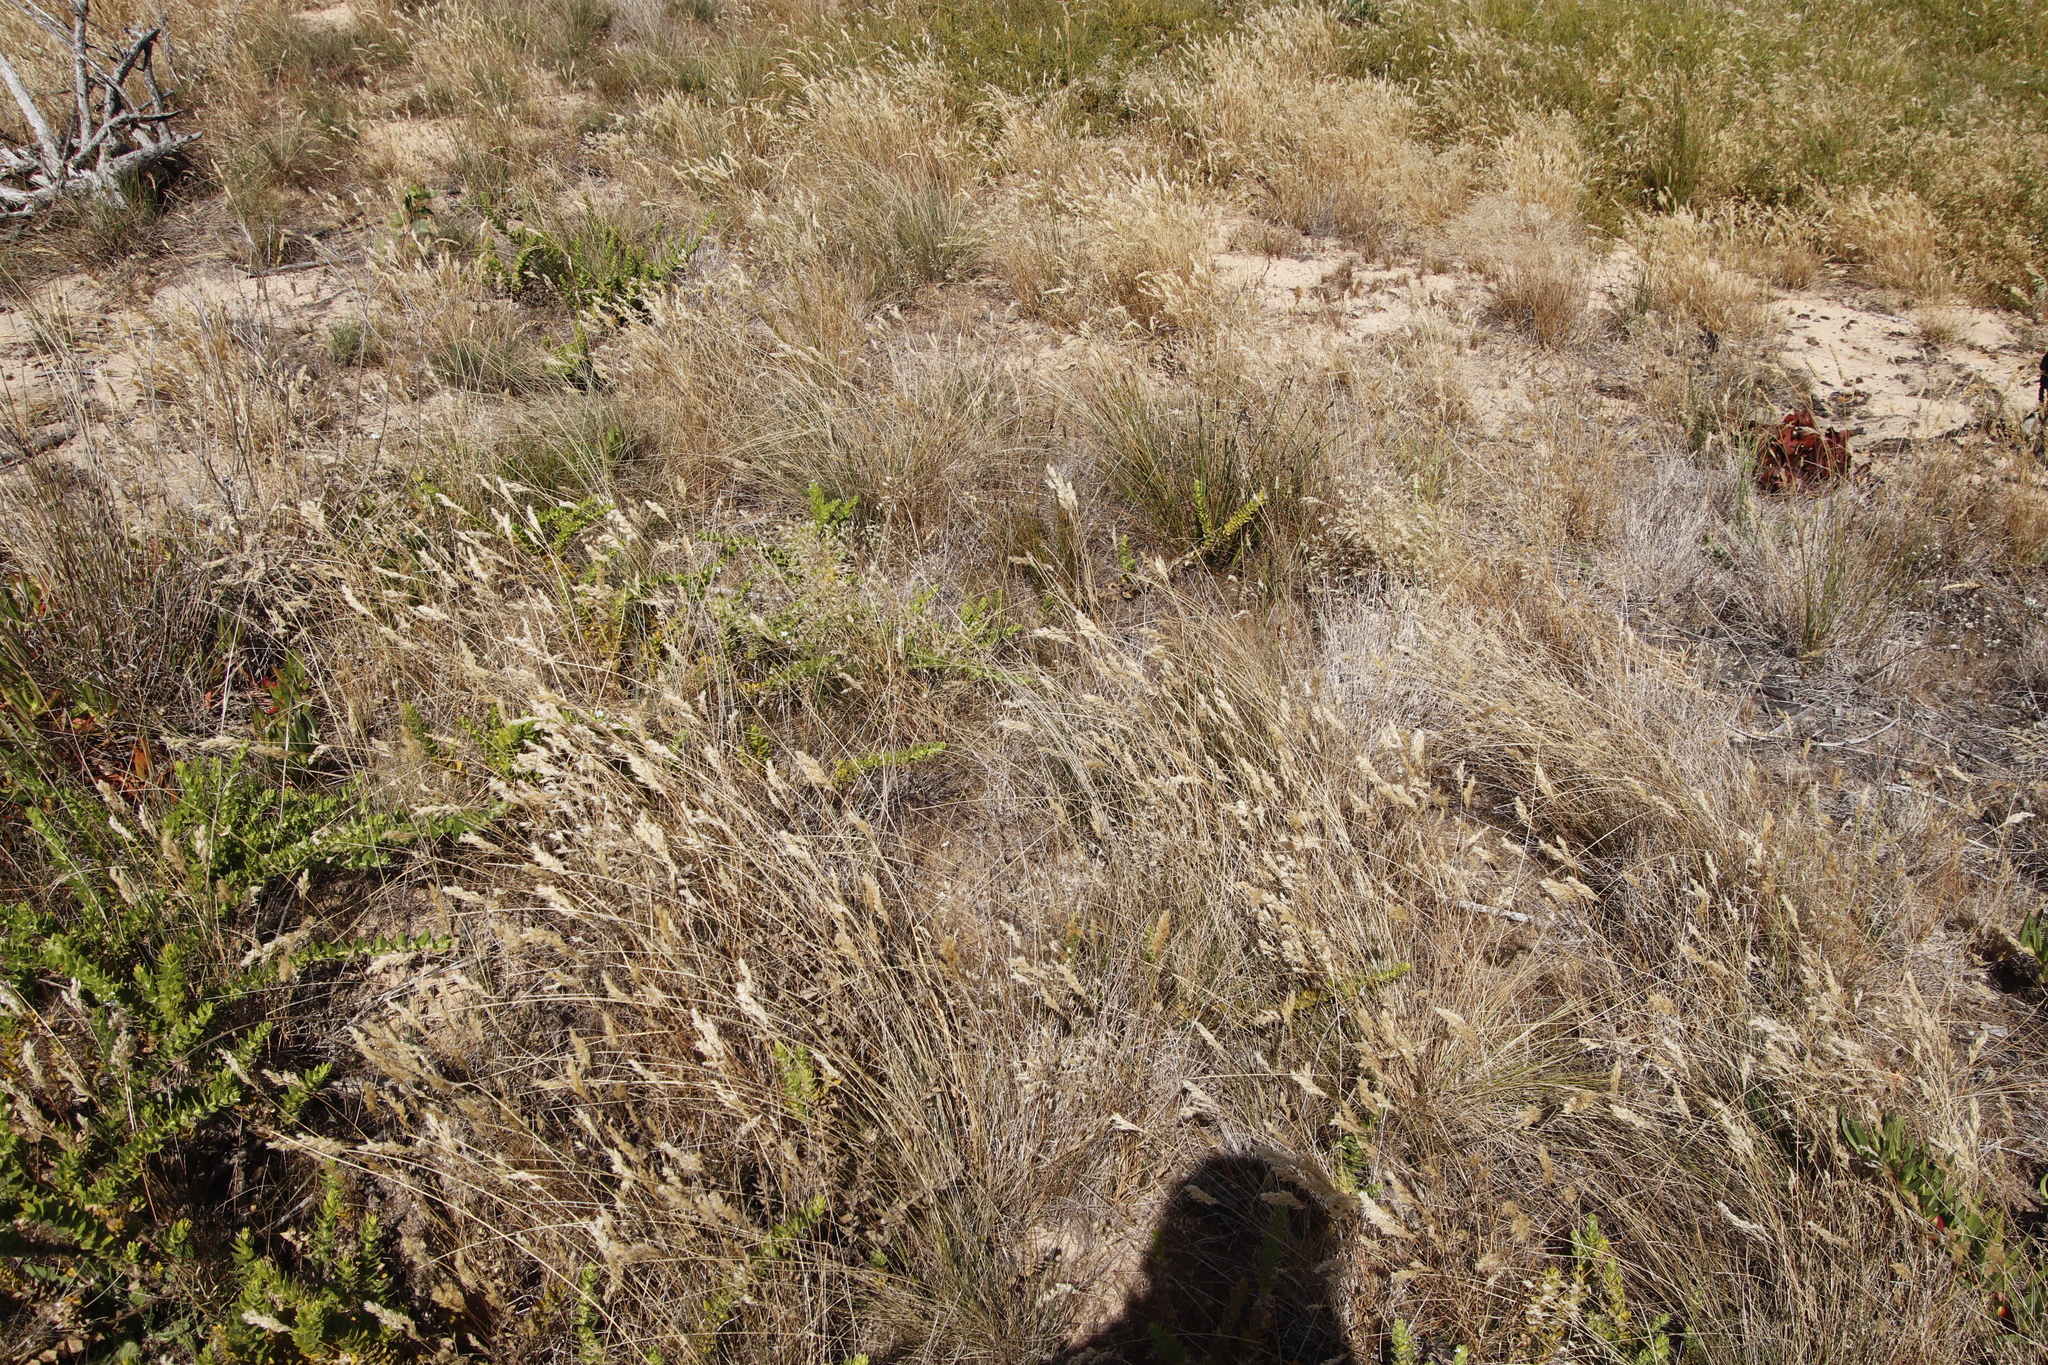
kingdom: Plantae
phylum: Tracheophyta
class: Liliopsida
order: Poales
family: Cyperaceae
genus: Ficinia
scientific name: Ficinia deusta
